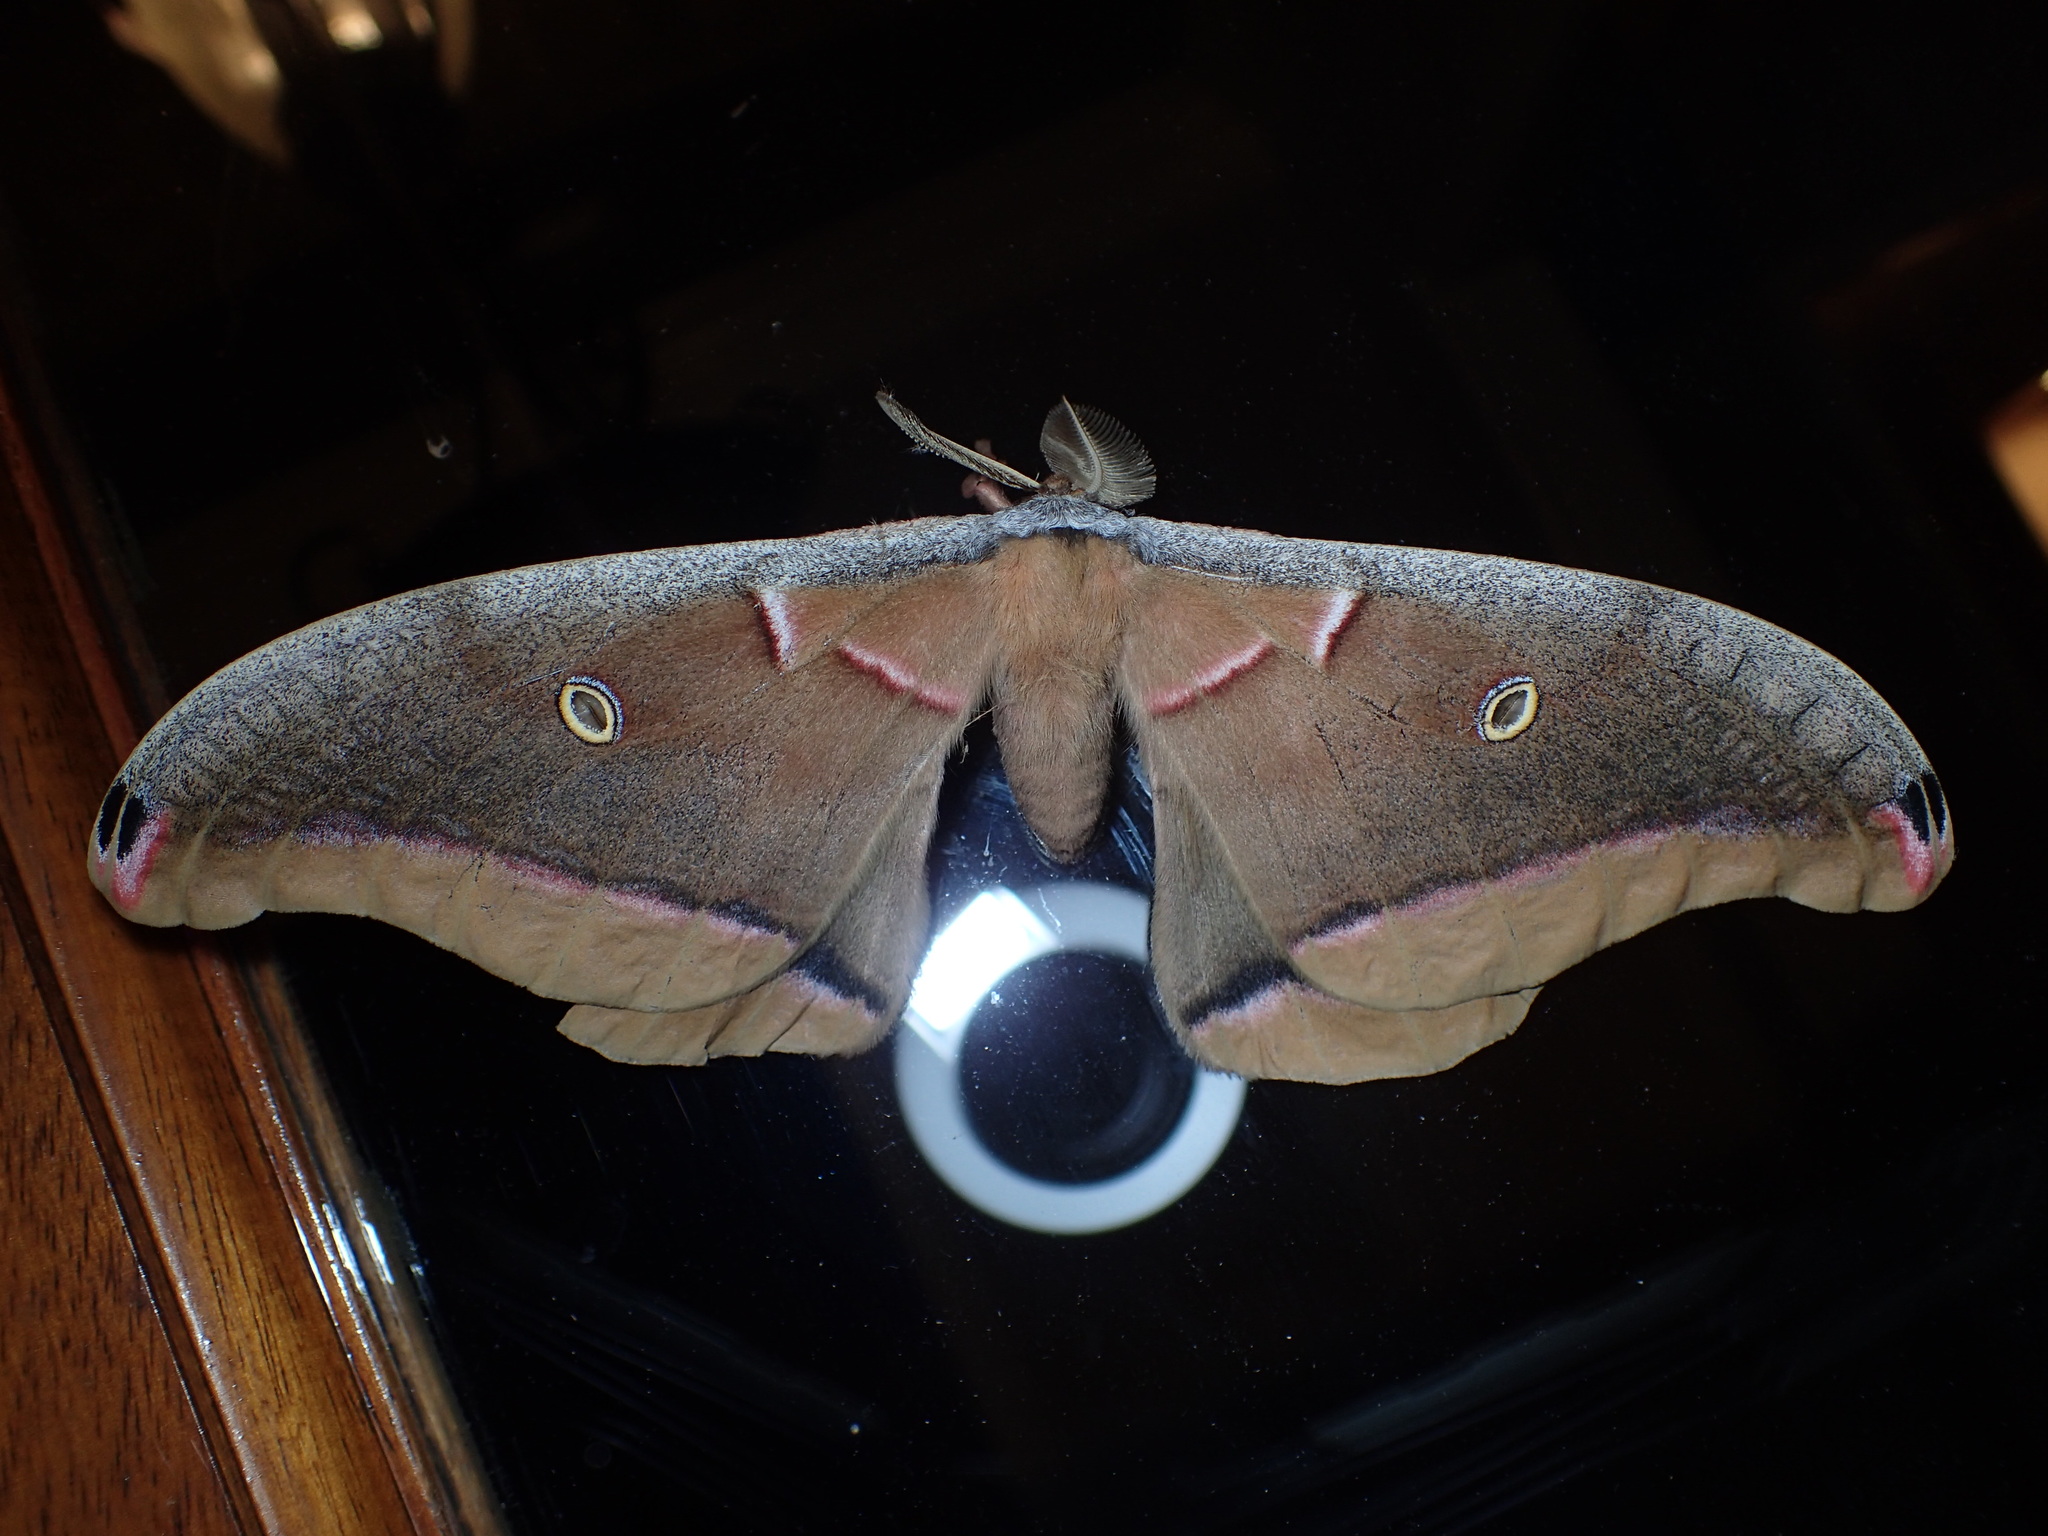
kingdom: Animalia
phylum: Arthropoda
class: Insecta
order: Lepidoptera
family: Saturniidae
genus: Antheraea
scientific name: Antheraea polyphemus
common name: Polyphemus moth
